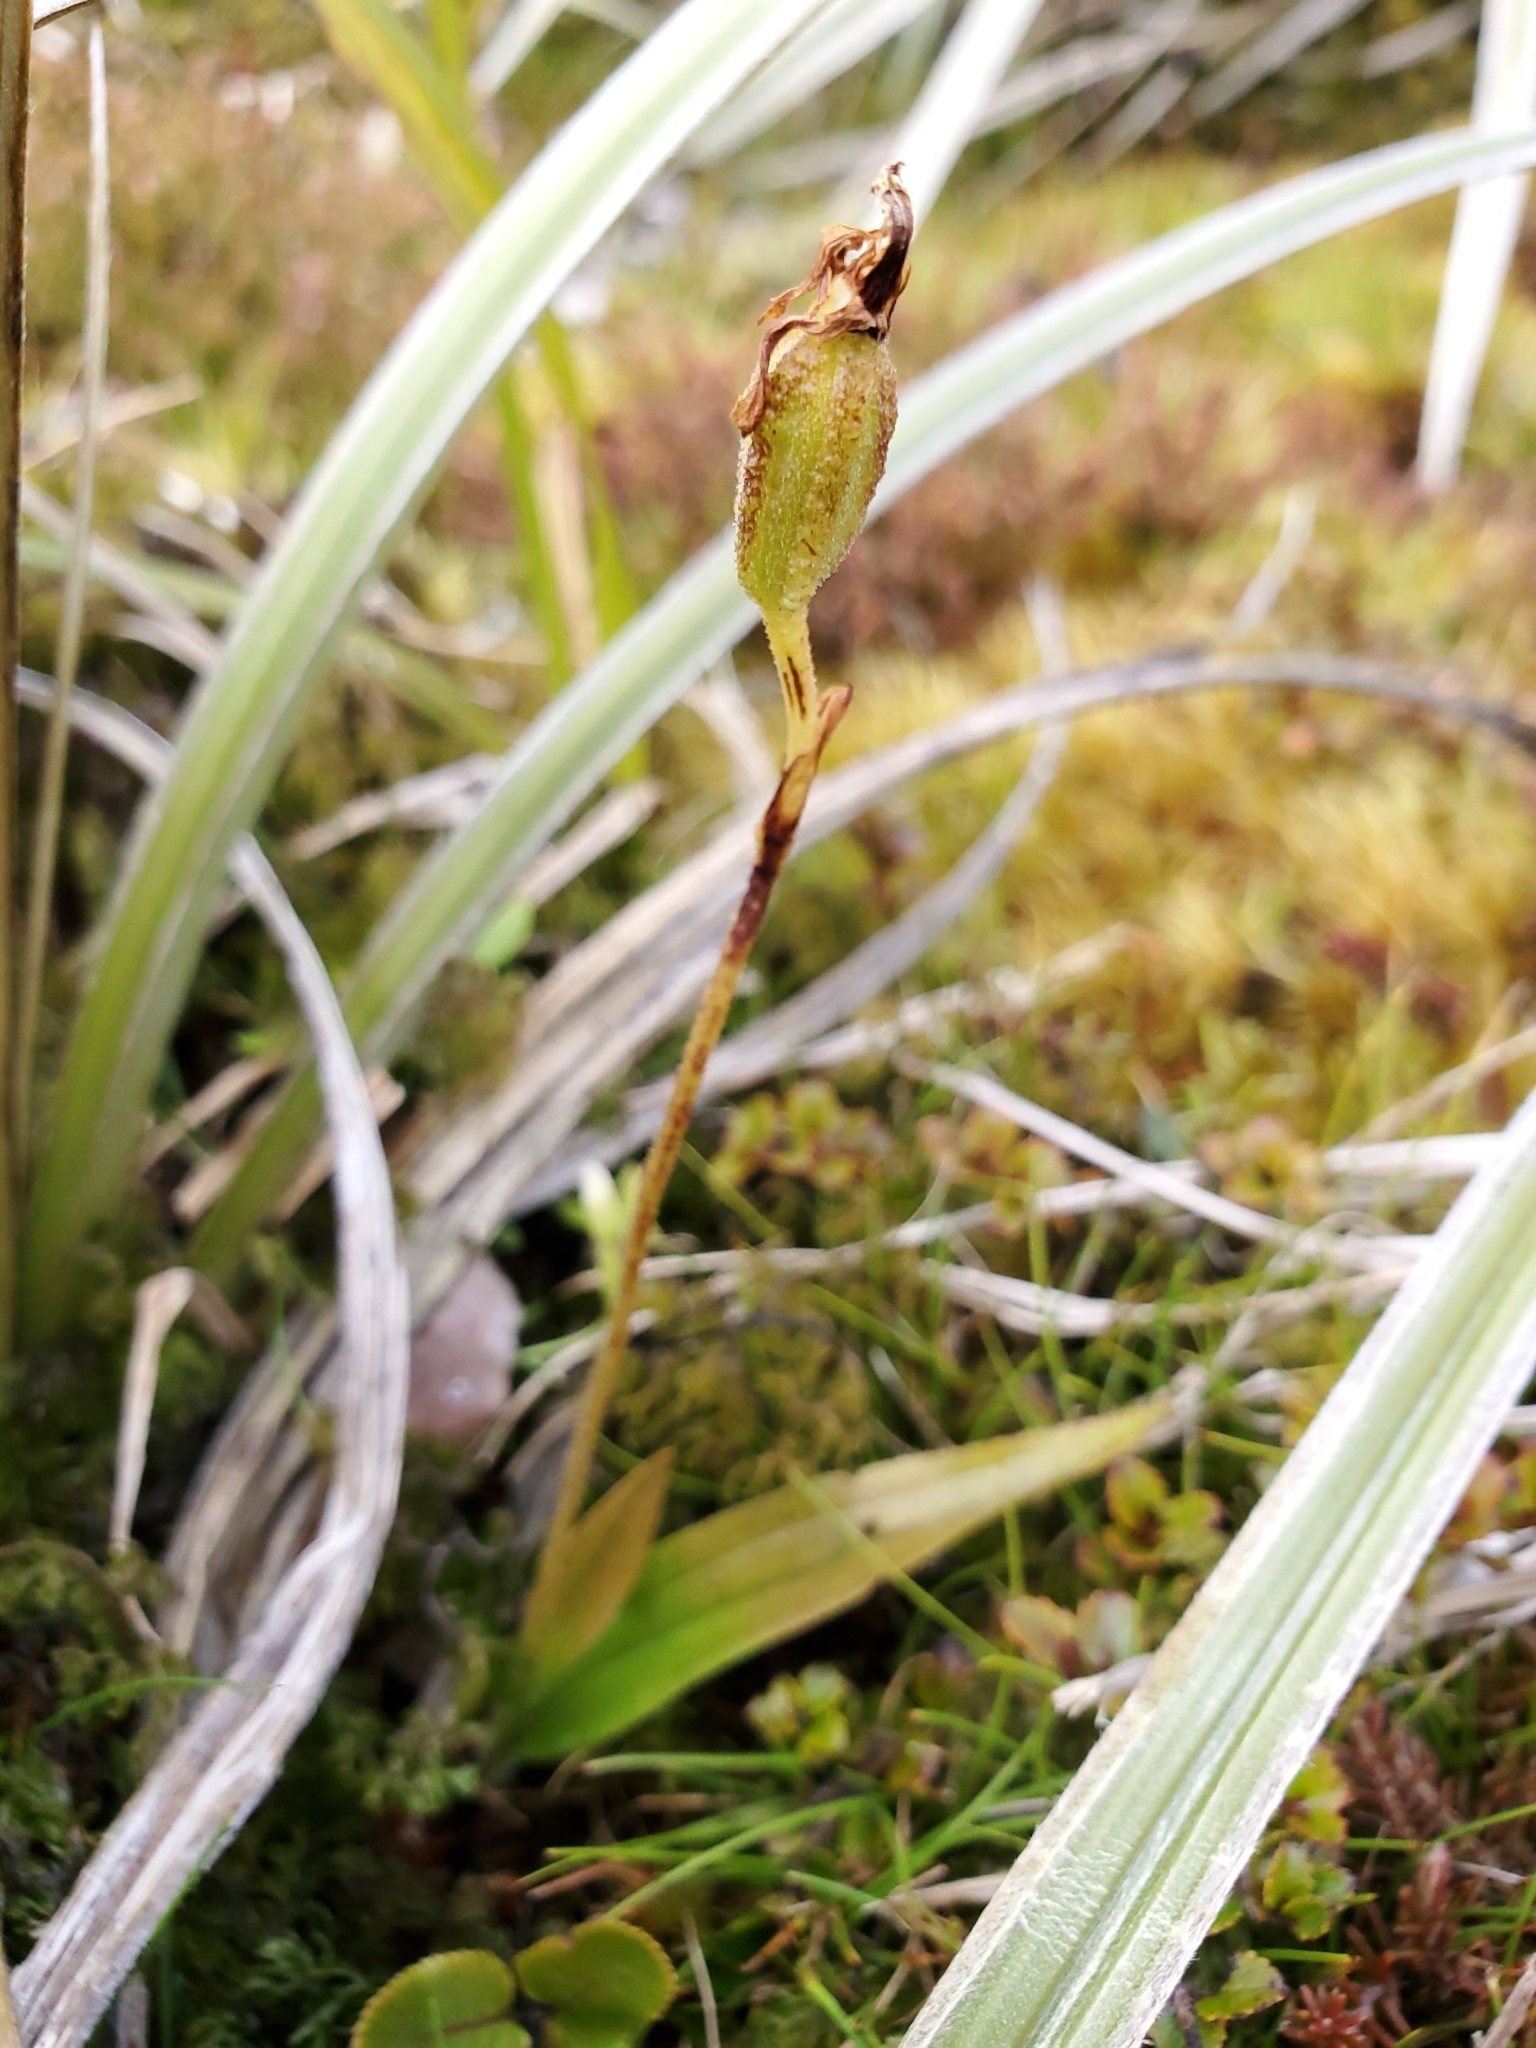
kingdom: Plantae
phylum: Tracheophyta
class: Liliopsida
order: Asparagales
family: Orchidaceae
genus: Aporostylis
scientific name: Aporostylis bifolia
